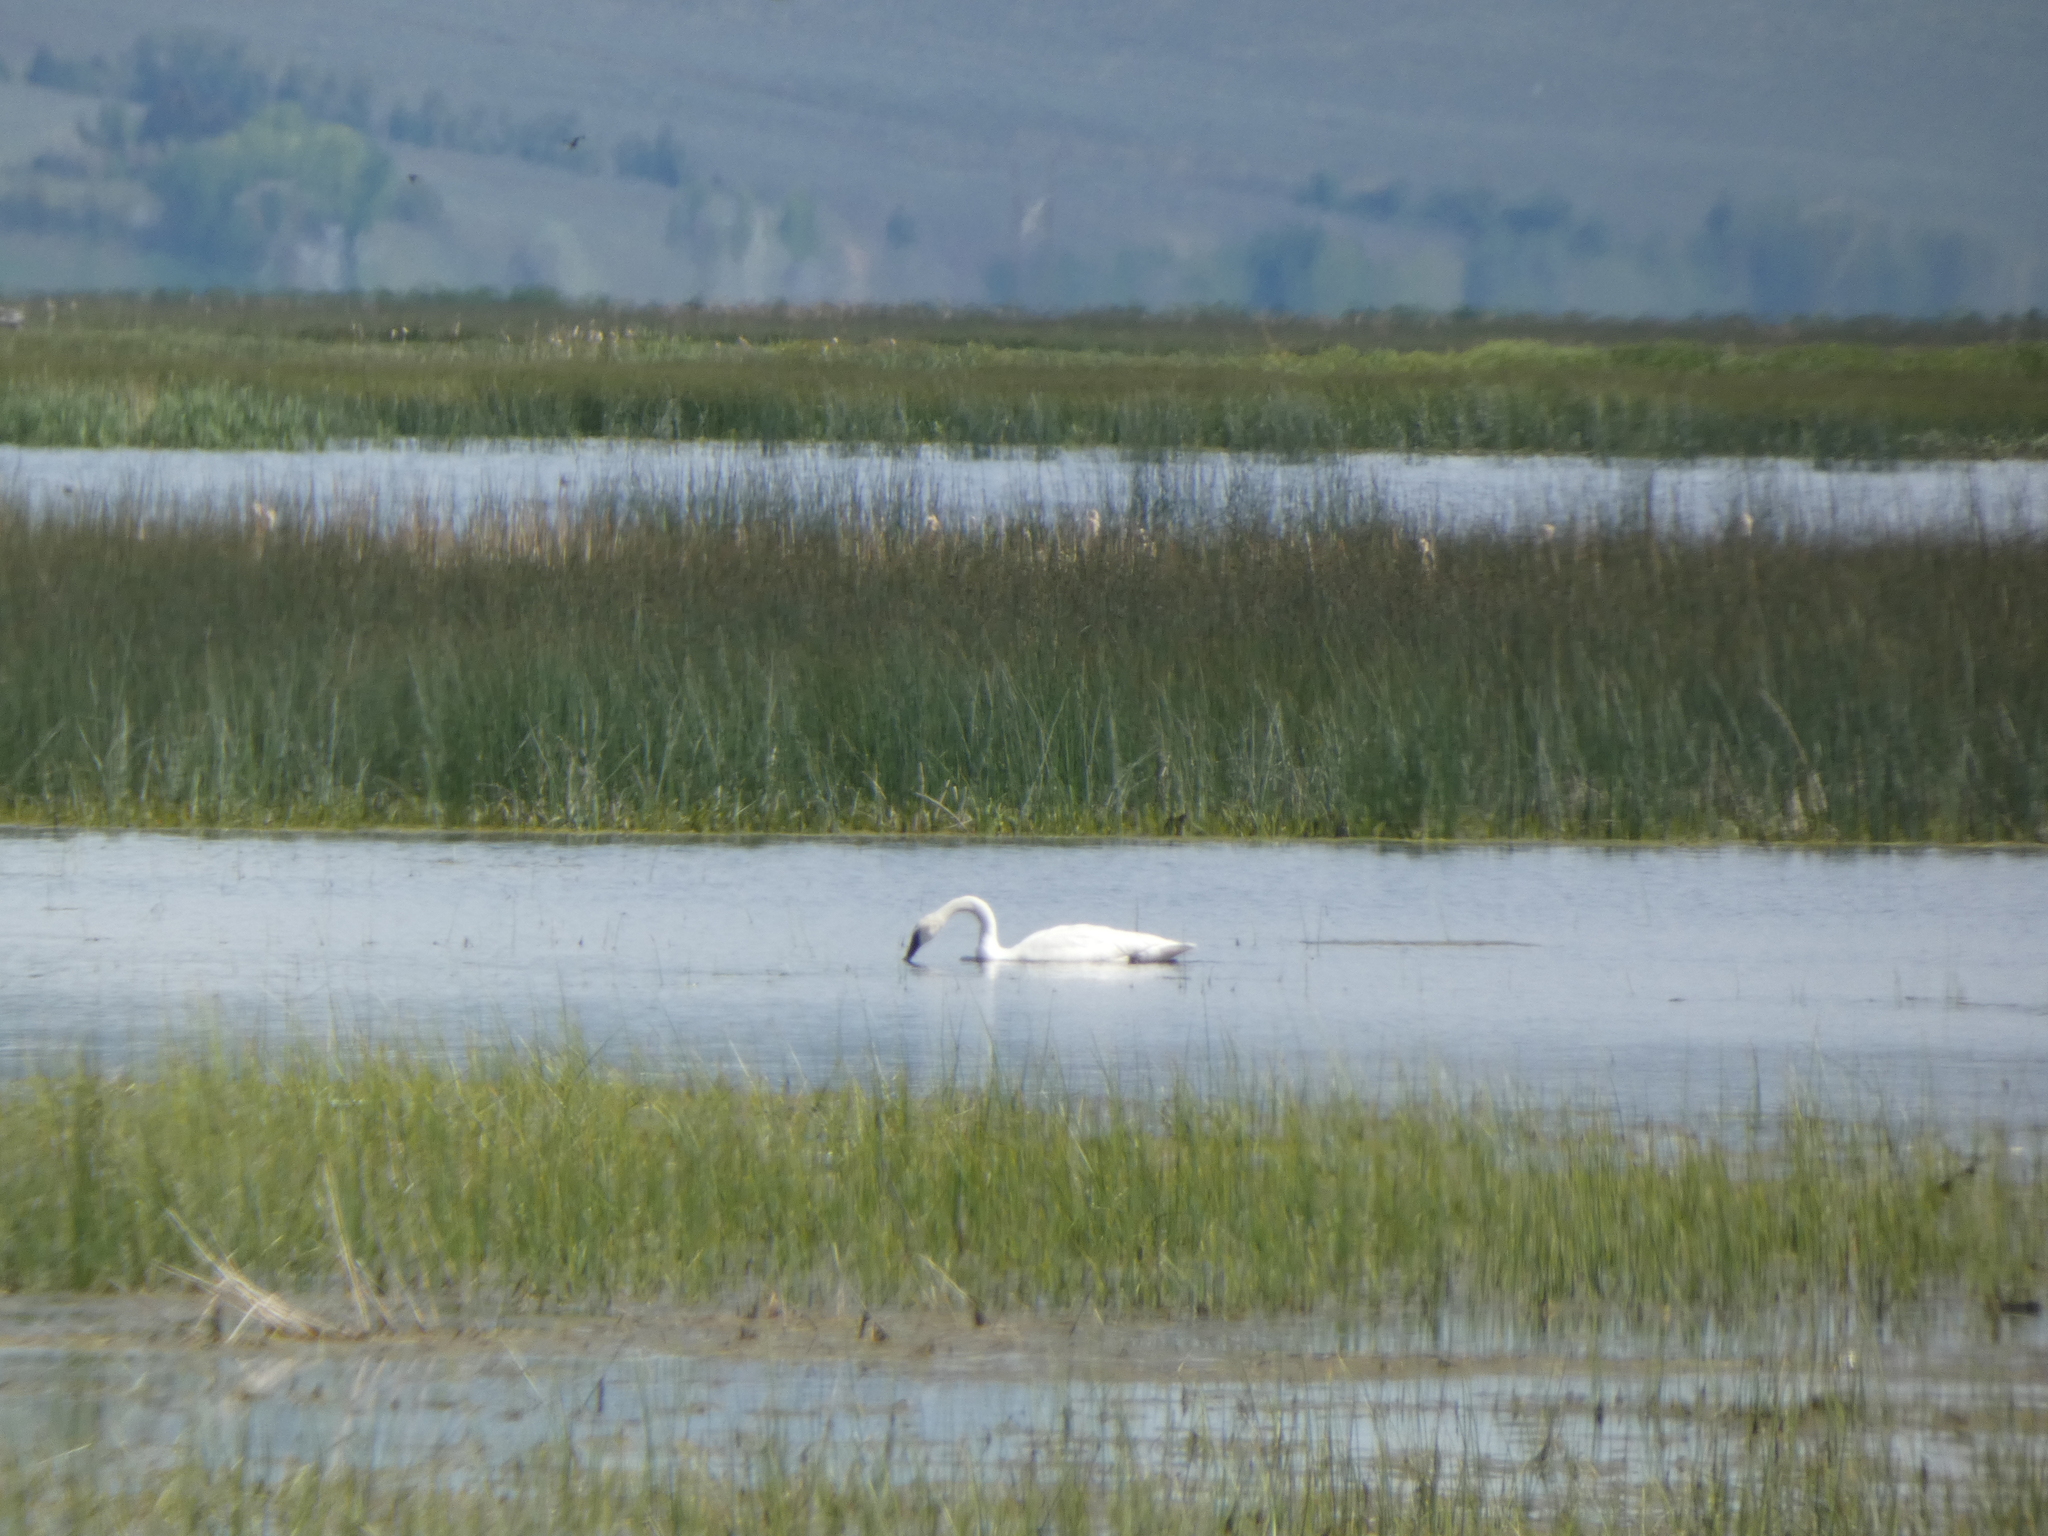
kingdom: Animalia
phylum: Chordata
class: Aves
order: Anseriformes
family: Anatidae
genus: Cygnus
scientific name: Cygnus buccinator
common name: Trumpeter swan
